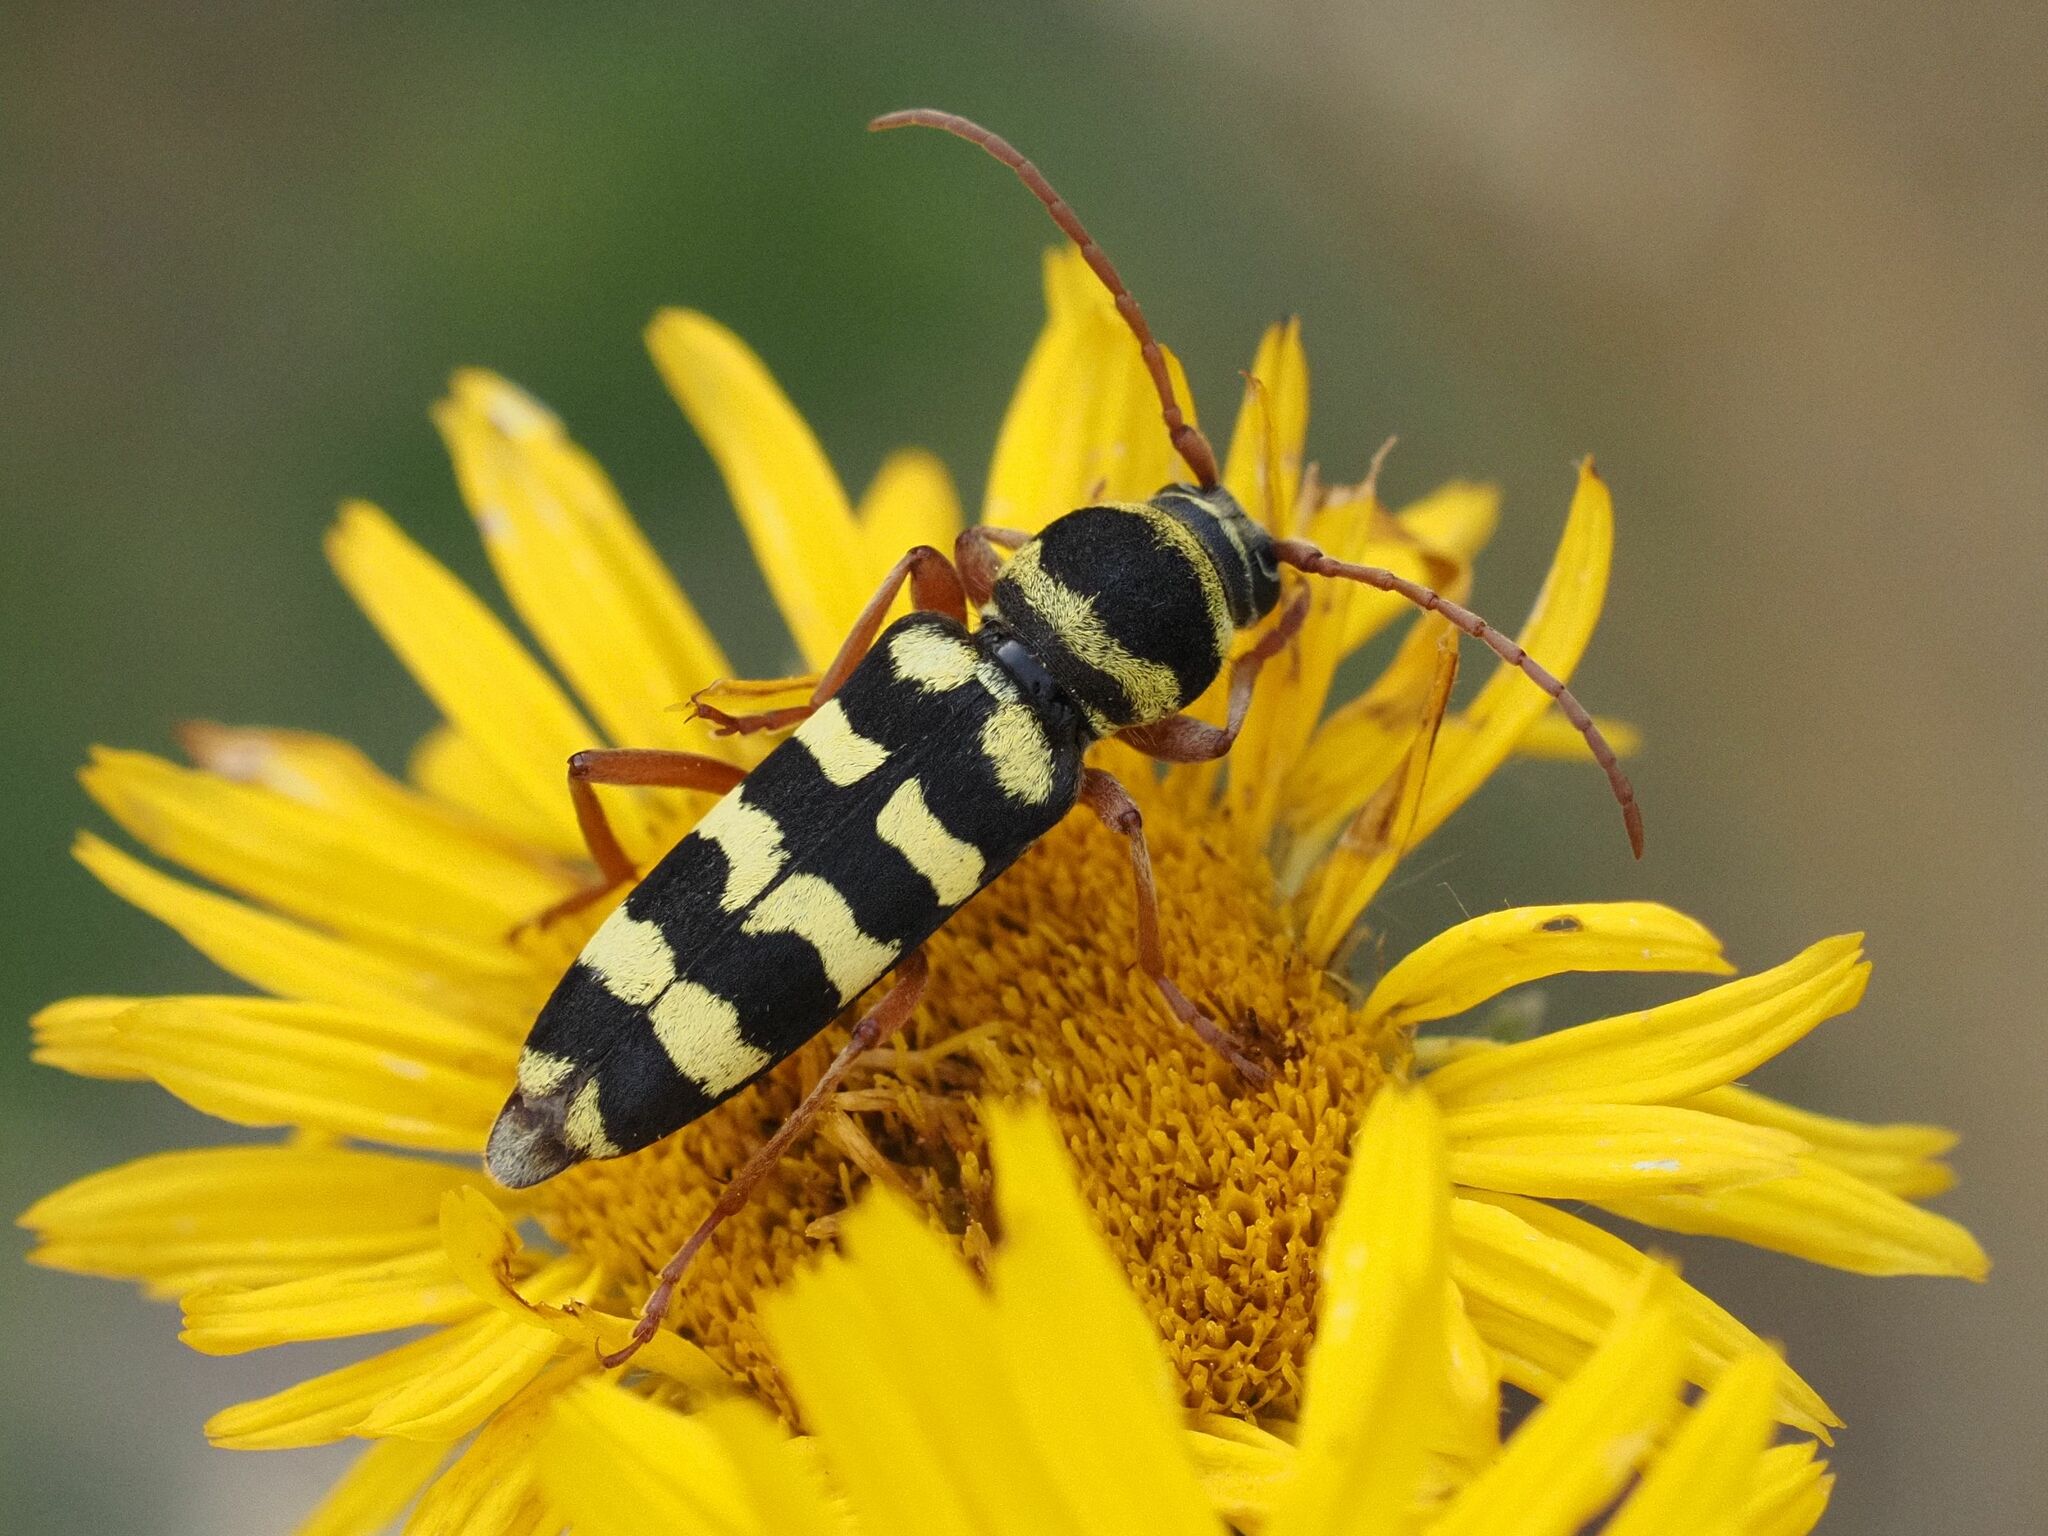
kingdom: Animalia
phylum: Arthropoda
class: Insecta
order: Coleoptera
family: Cerambycidae
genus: Plagionotus
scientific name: Plagionotus floralis
